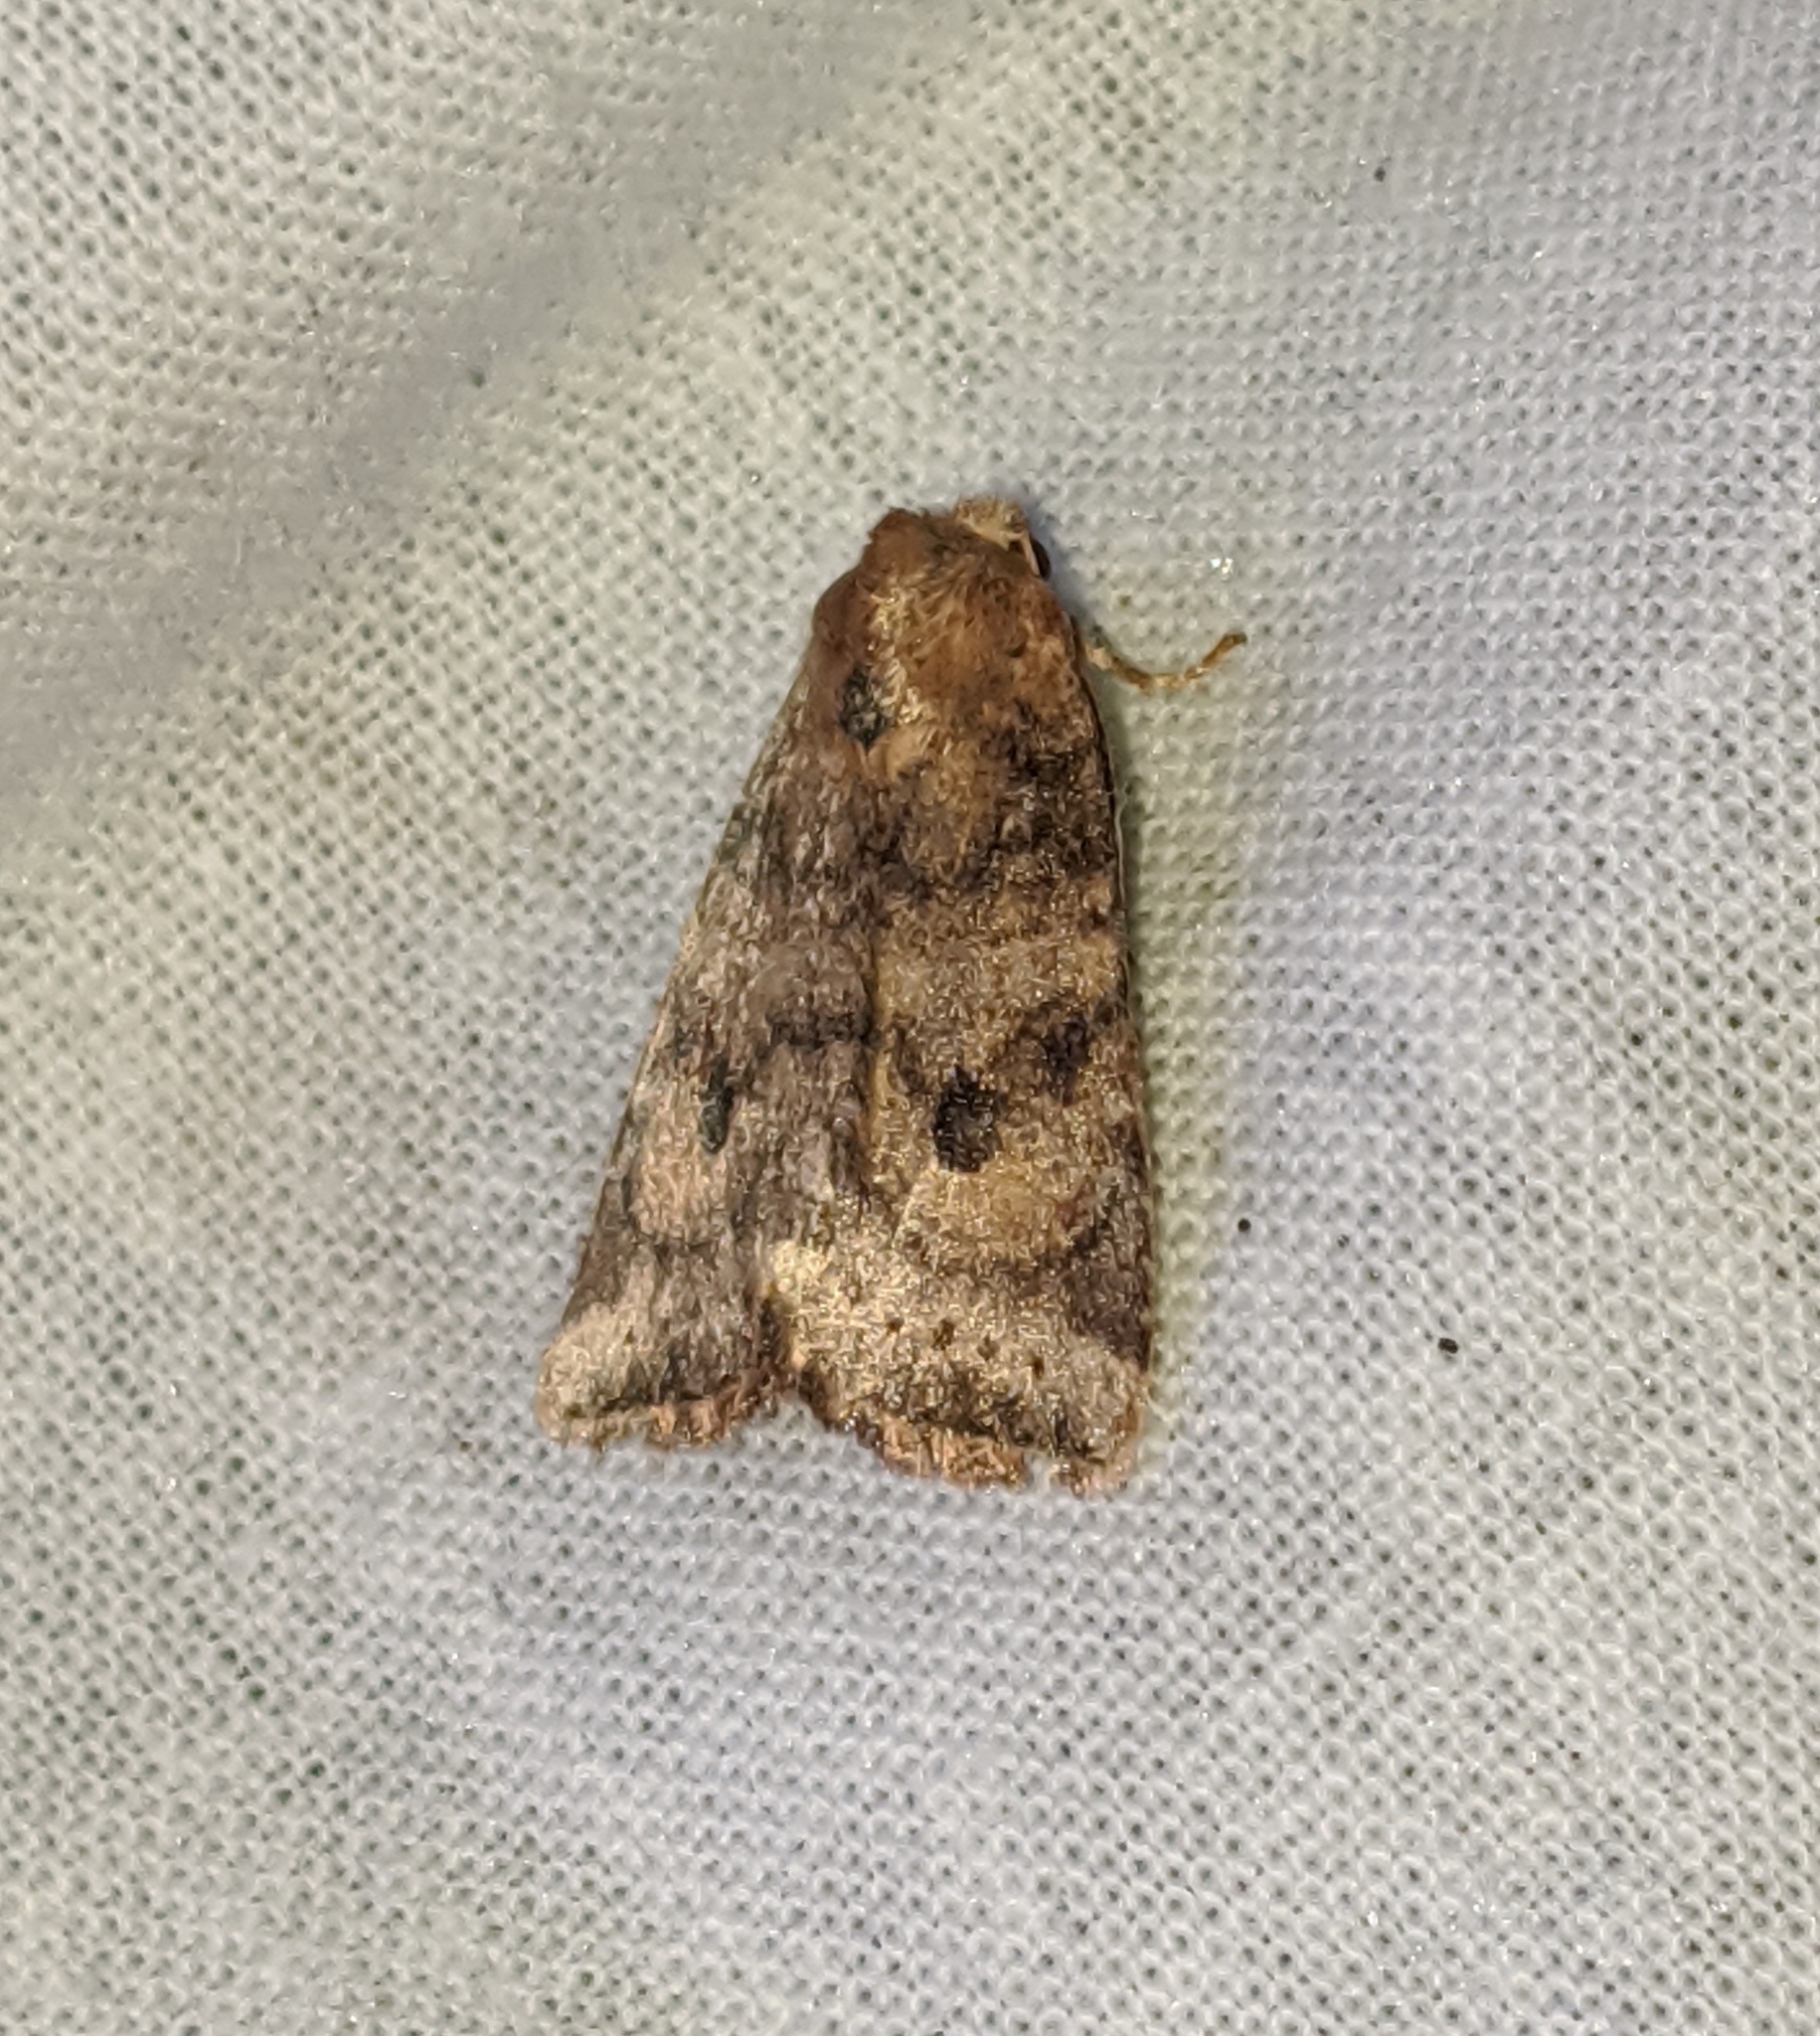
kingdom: Animalia
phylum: Arthropoda
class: Insecta
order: Lepidoptera
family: Noctuidae
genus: Anathix
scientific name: Anathix puta
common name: Puta sallow
